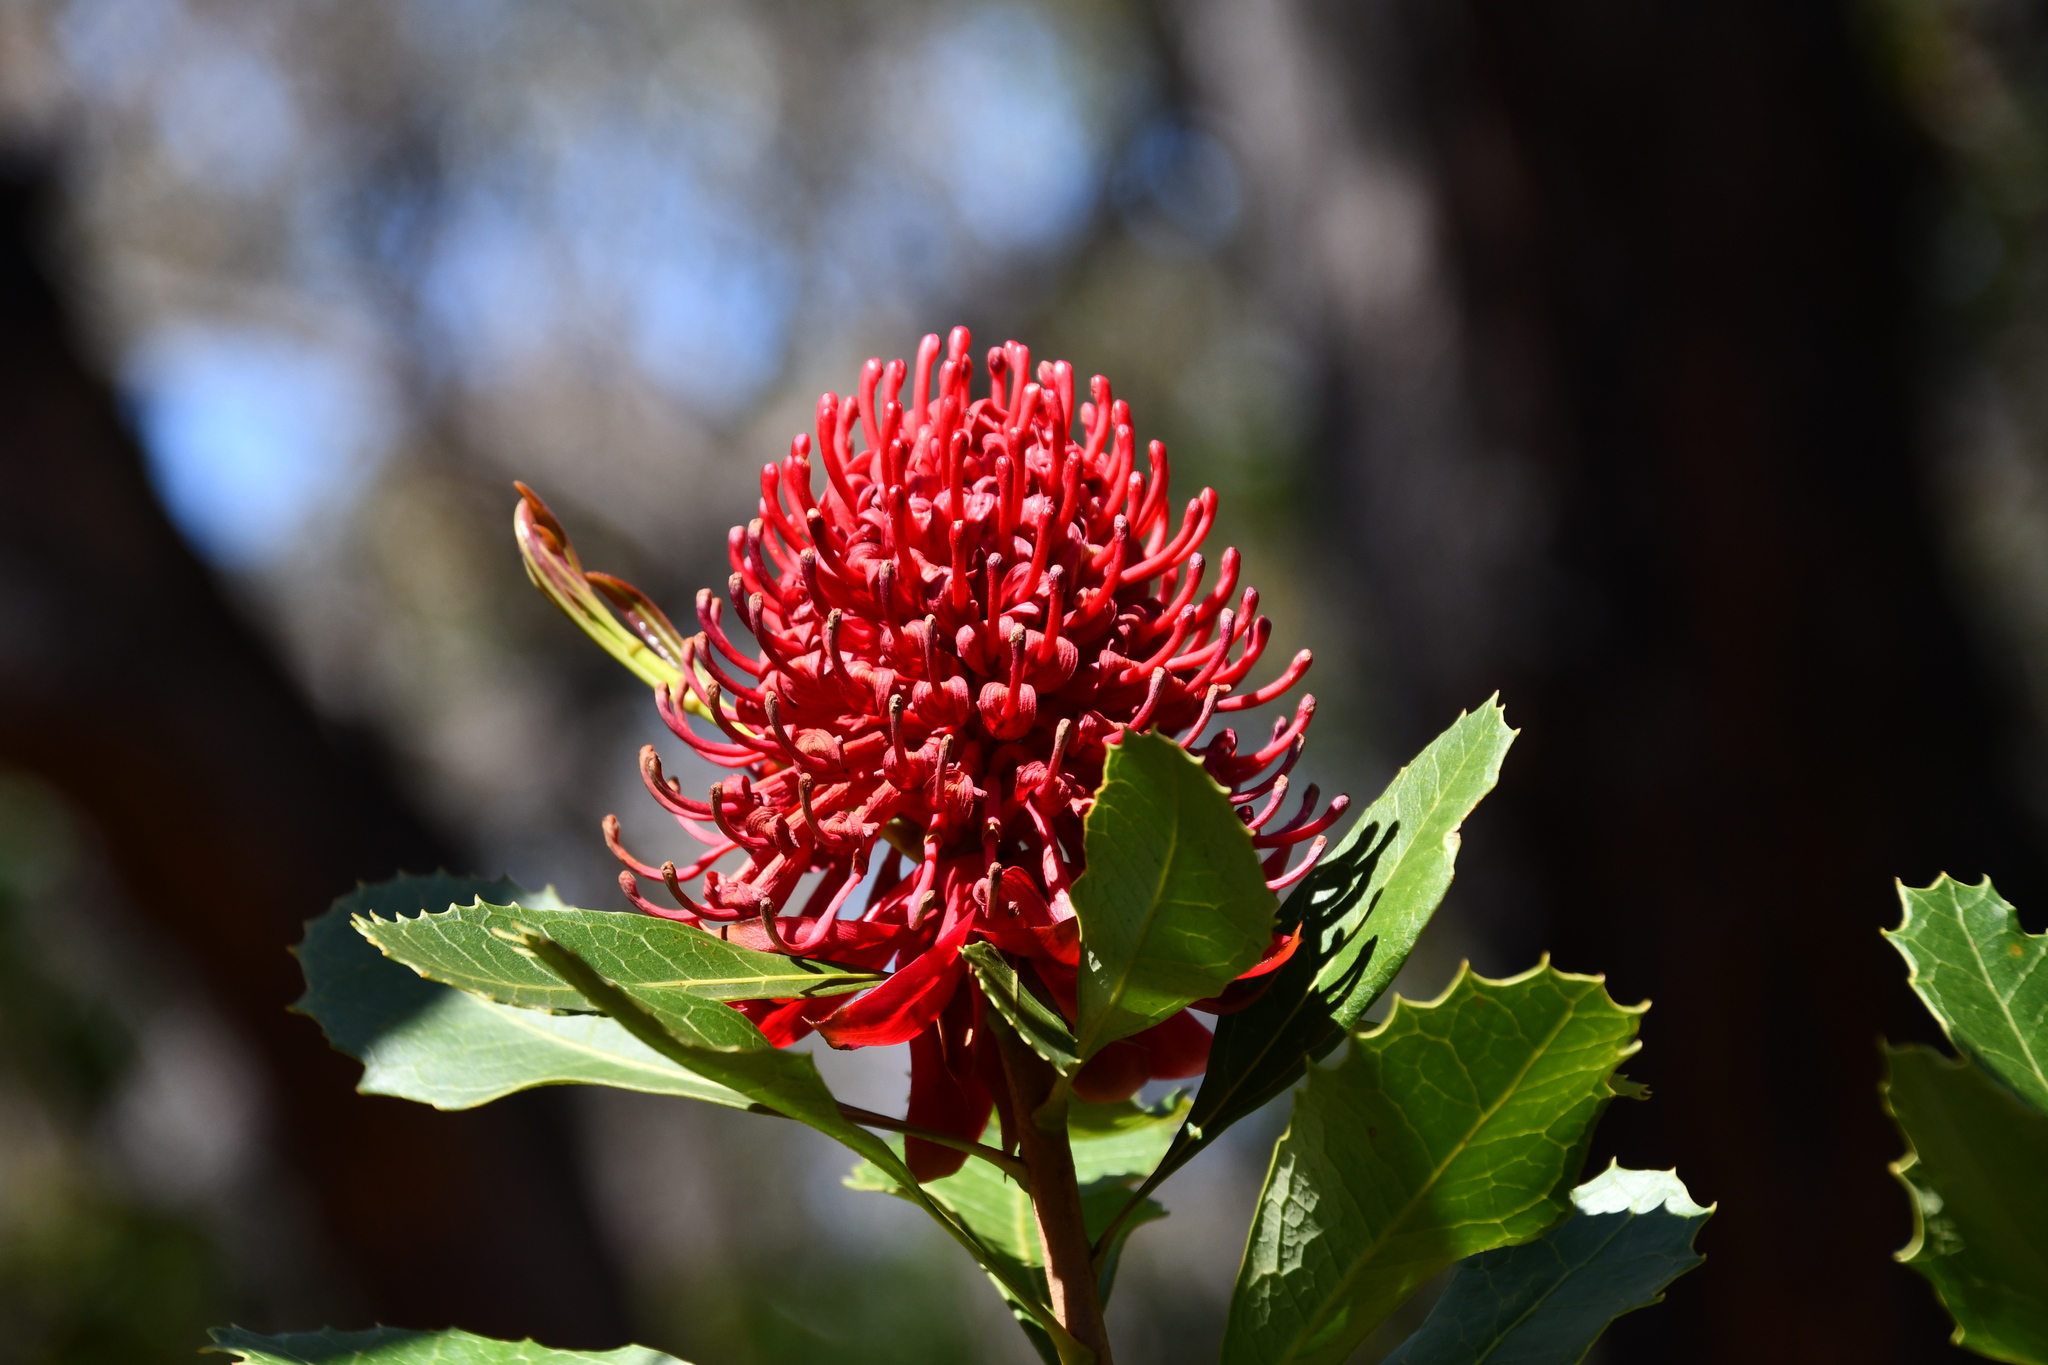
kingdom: Plantae
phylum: Tracheophyta
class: Magnoliopsida
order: Proteales
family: Proteaceae
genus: Telopea
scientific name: Telopea speciosissima
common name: New south wales waratah
